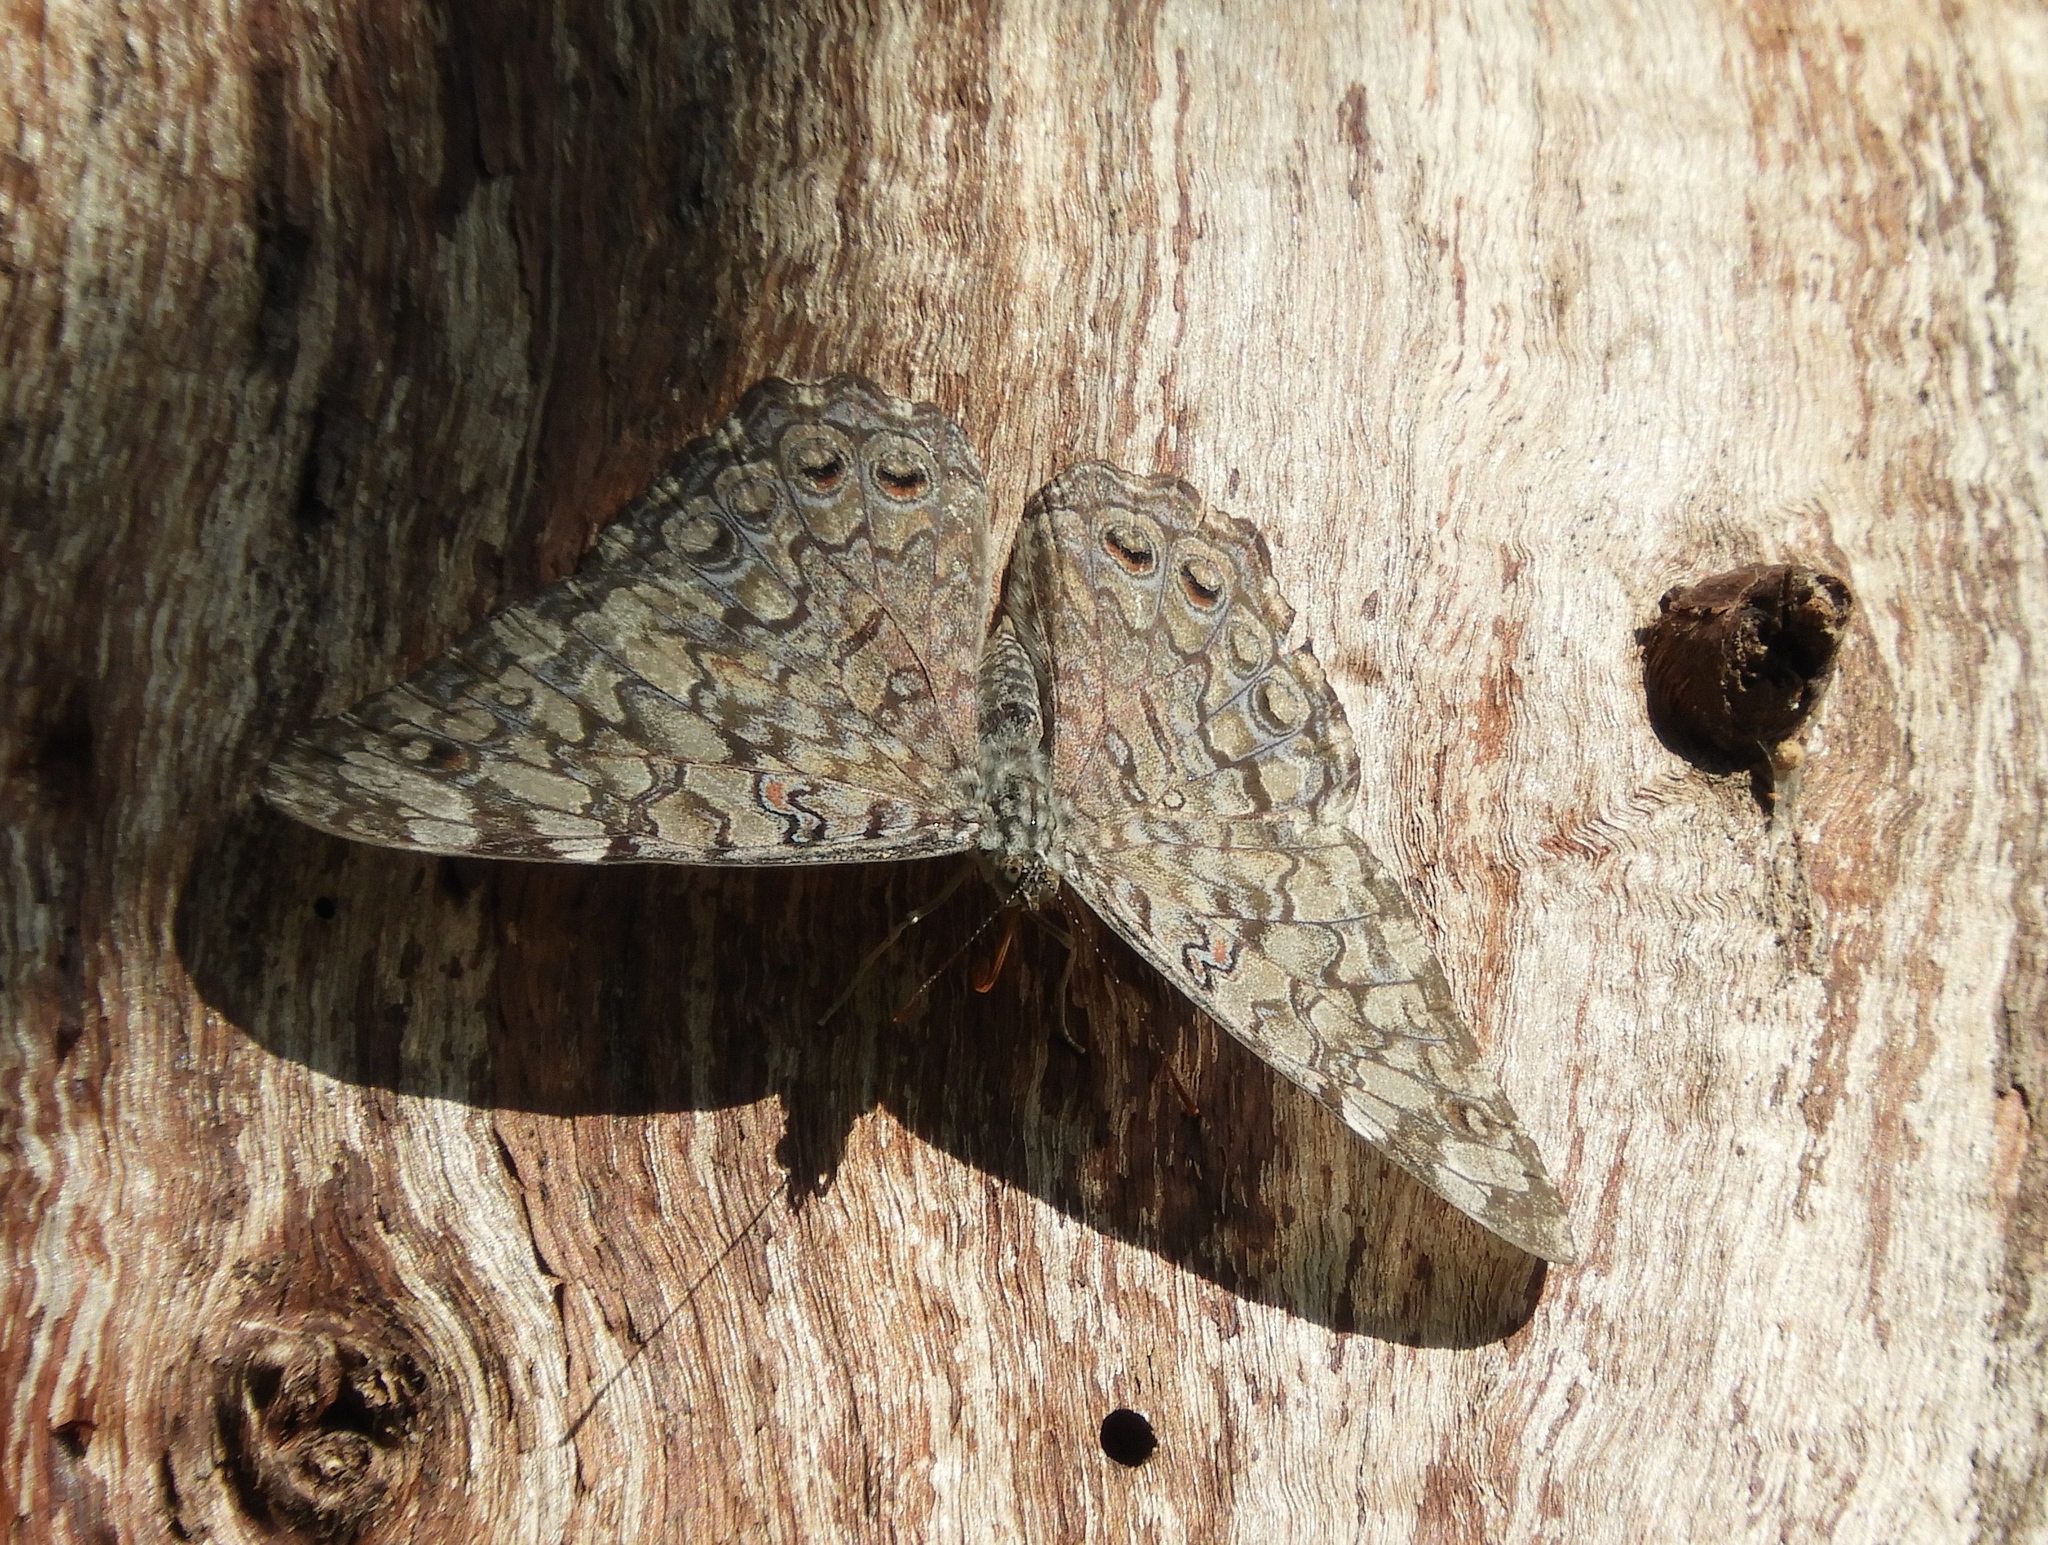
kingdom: Animalia
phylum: Arthropoda
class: Insecta
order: Lepidoptera
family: Nymphalidae
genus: Hamadryas
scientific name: Hamadryas februa
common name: Gray cracker
